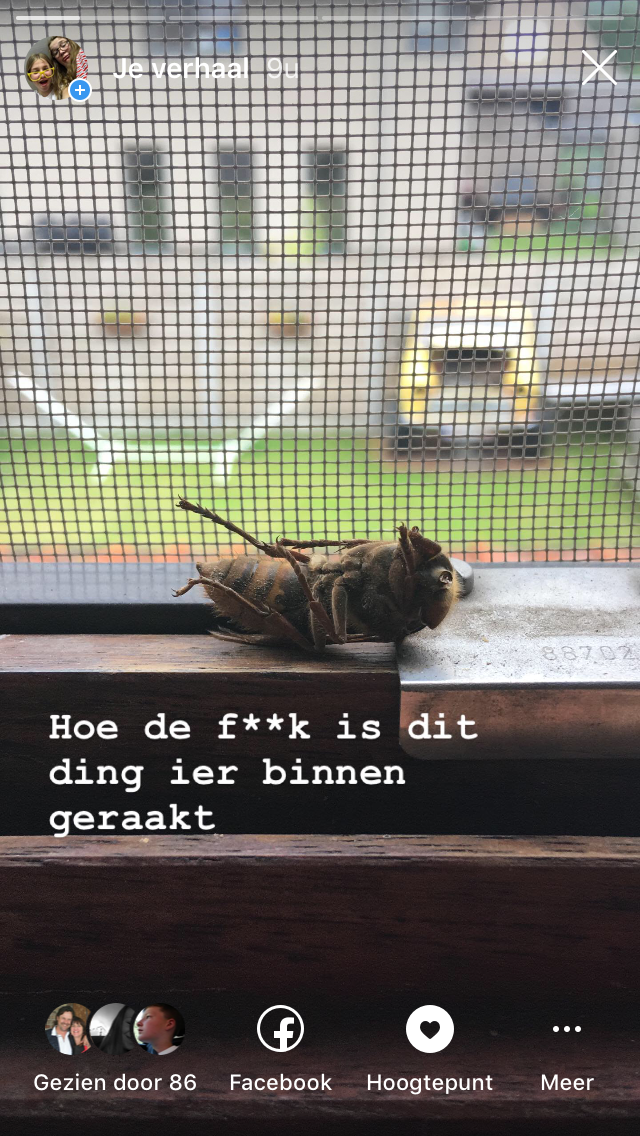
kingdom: Animalia
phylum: Arthropoda
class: Insecta
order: Hymenoptera
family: Vespidae
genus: Vespa
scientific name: Vespa crabro
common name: Hornet
